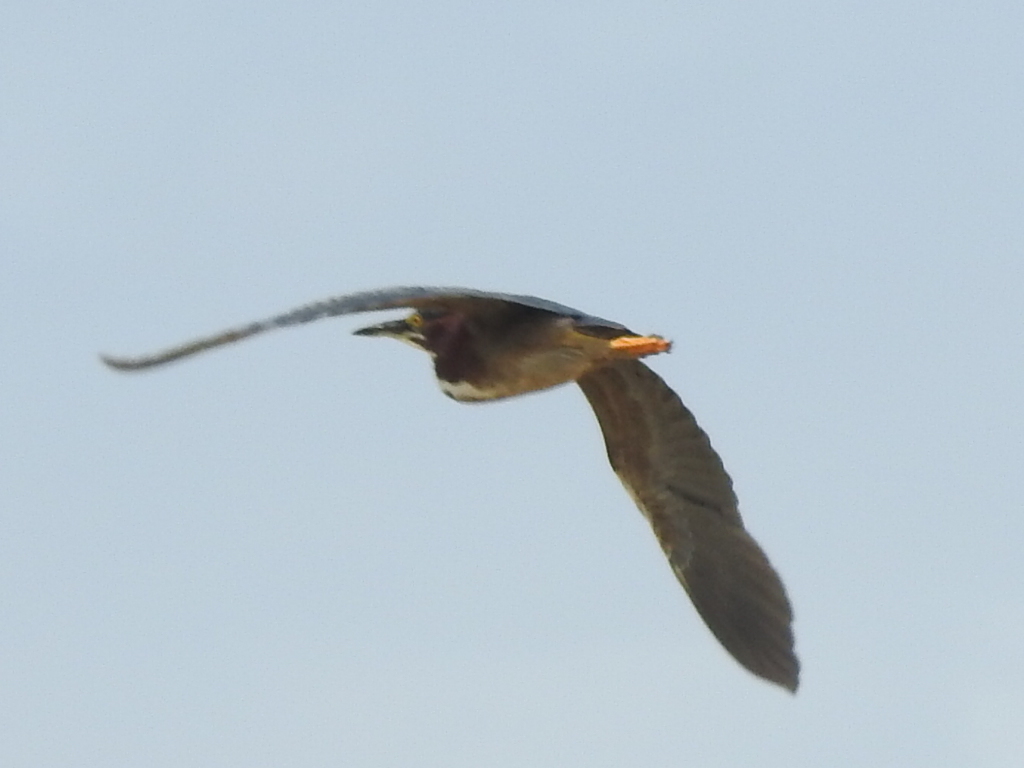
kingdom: Animalia
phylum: Chordata
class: Aves
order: Pelecaniformes
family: Ardeidae
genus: Butorides
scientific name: Butorides virescens
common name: Green heron
